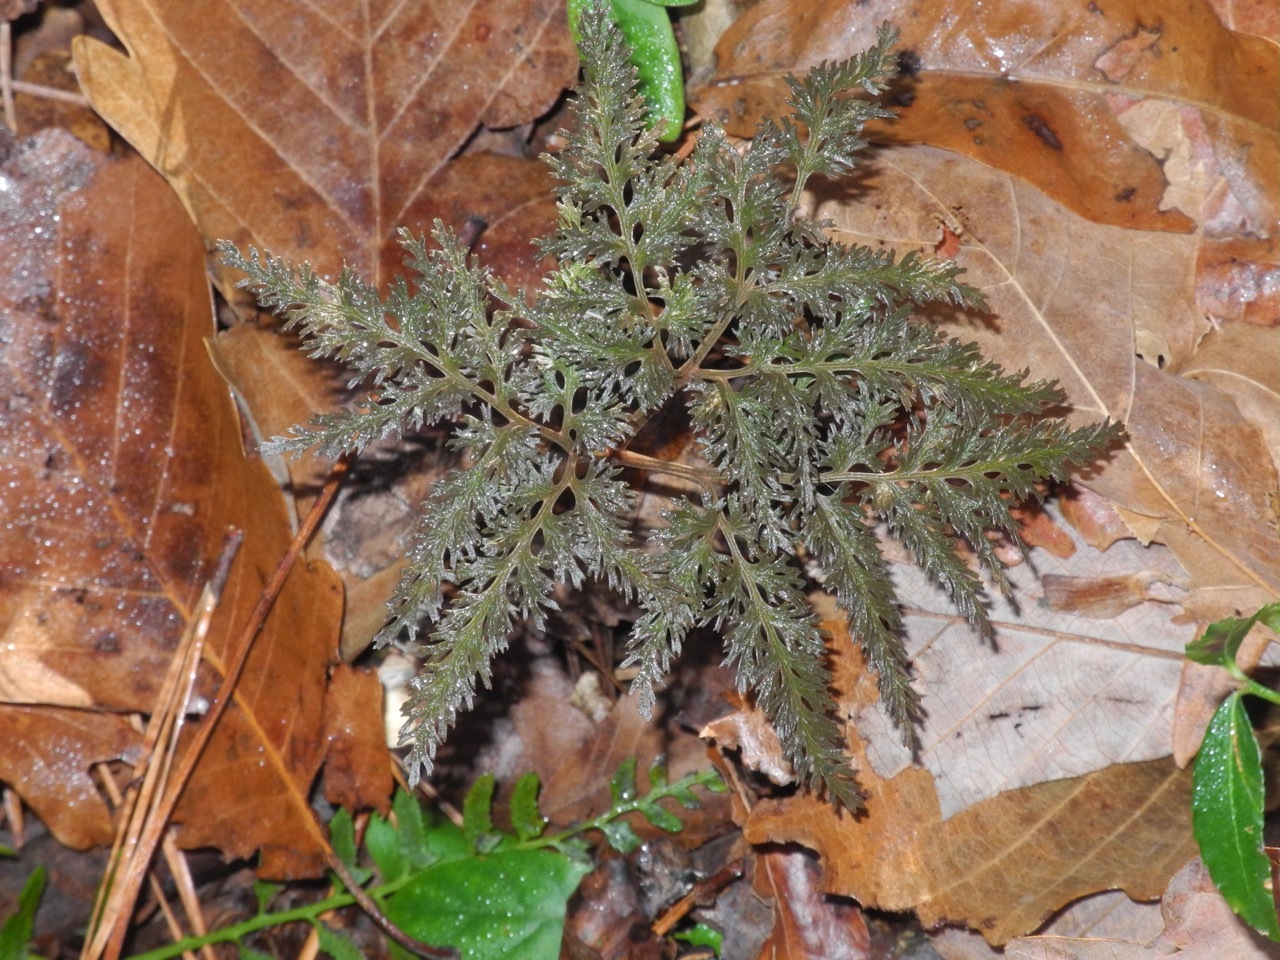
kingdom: Plantae
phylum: Tracheophyta
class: Polypodiopsida
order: Ophioglossales
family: Ophioglossaceae
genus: Sceptridium
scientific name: Sceptridium dissectum
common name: Cut-leaved grapefern
